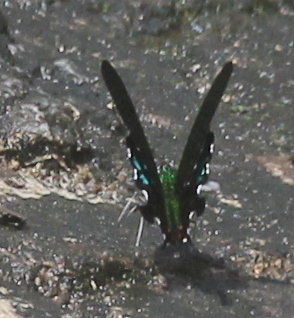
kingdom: Animalia
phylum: Arthropoda
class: Insecta
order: Lepidoptera
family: Papilionidae
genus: Papilio
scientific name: Papilio paris
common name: Paris peacock
